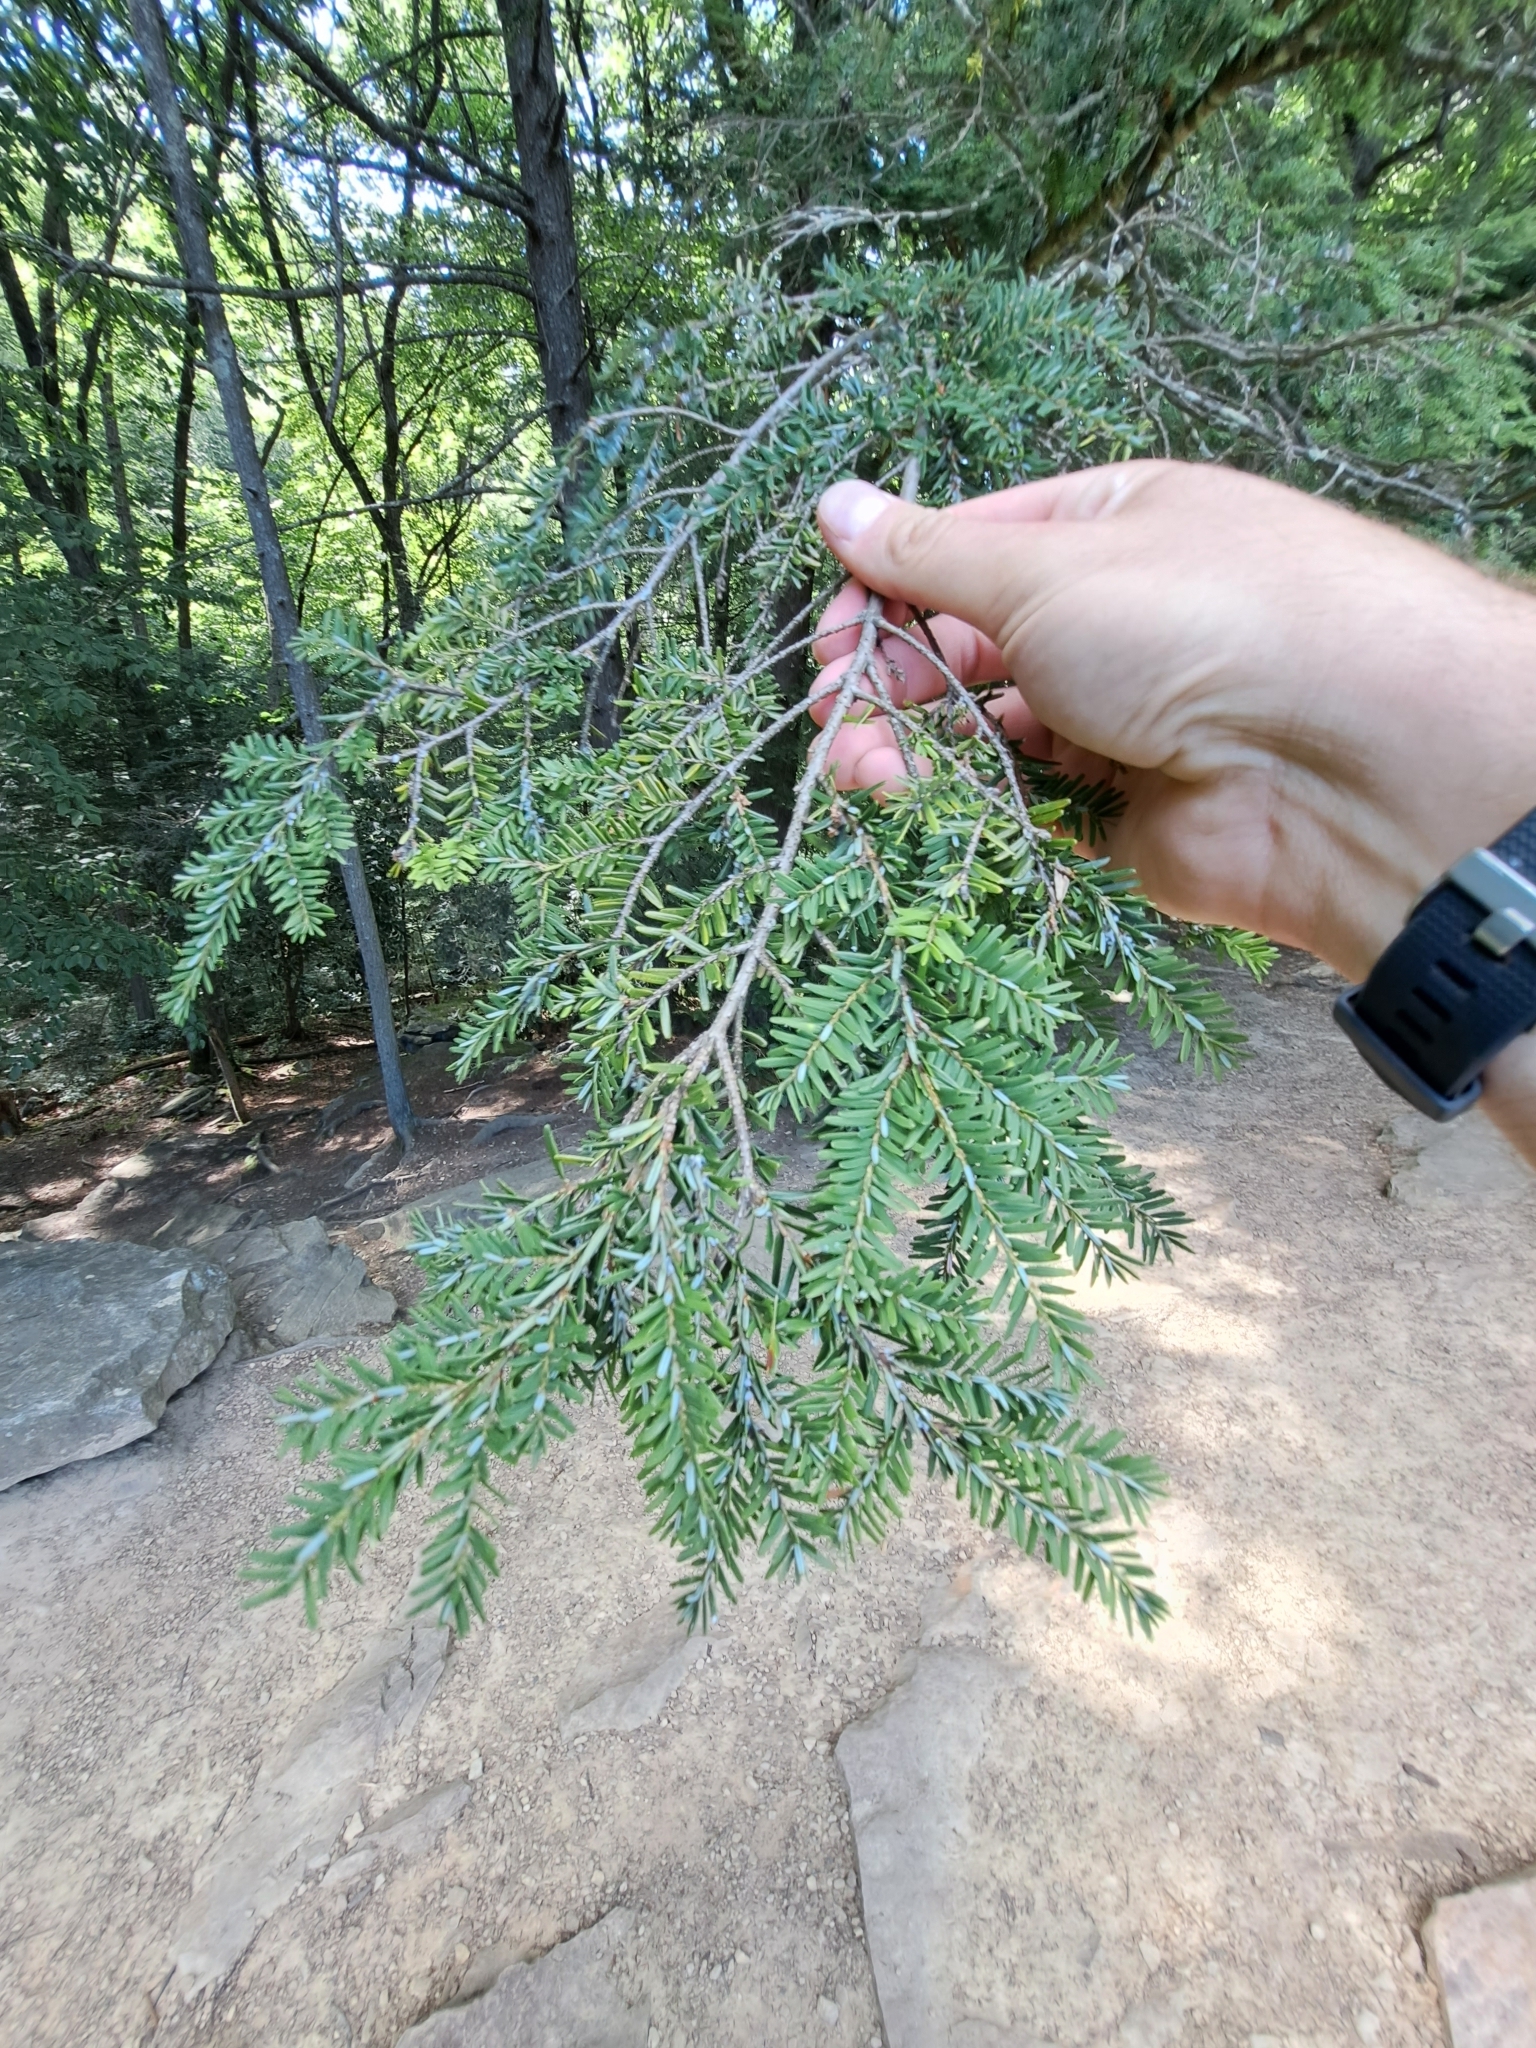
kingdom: Plantae
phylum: Tracheophyta
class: Pinopsida
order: Pinales
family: Pinaceae
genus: Tsuga
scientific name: Tsuga canadensis
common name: Eastern hemlock
